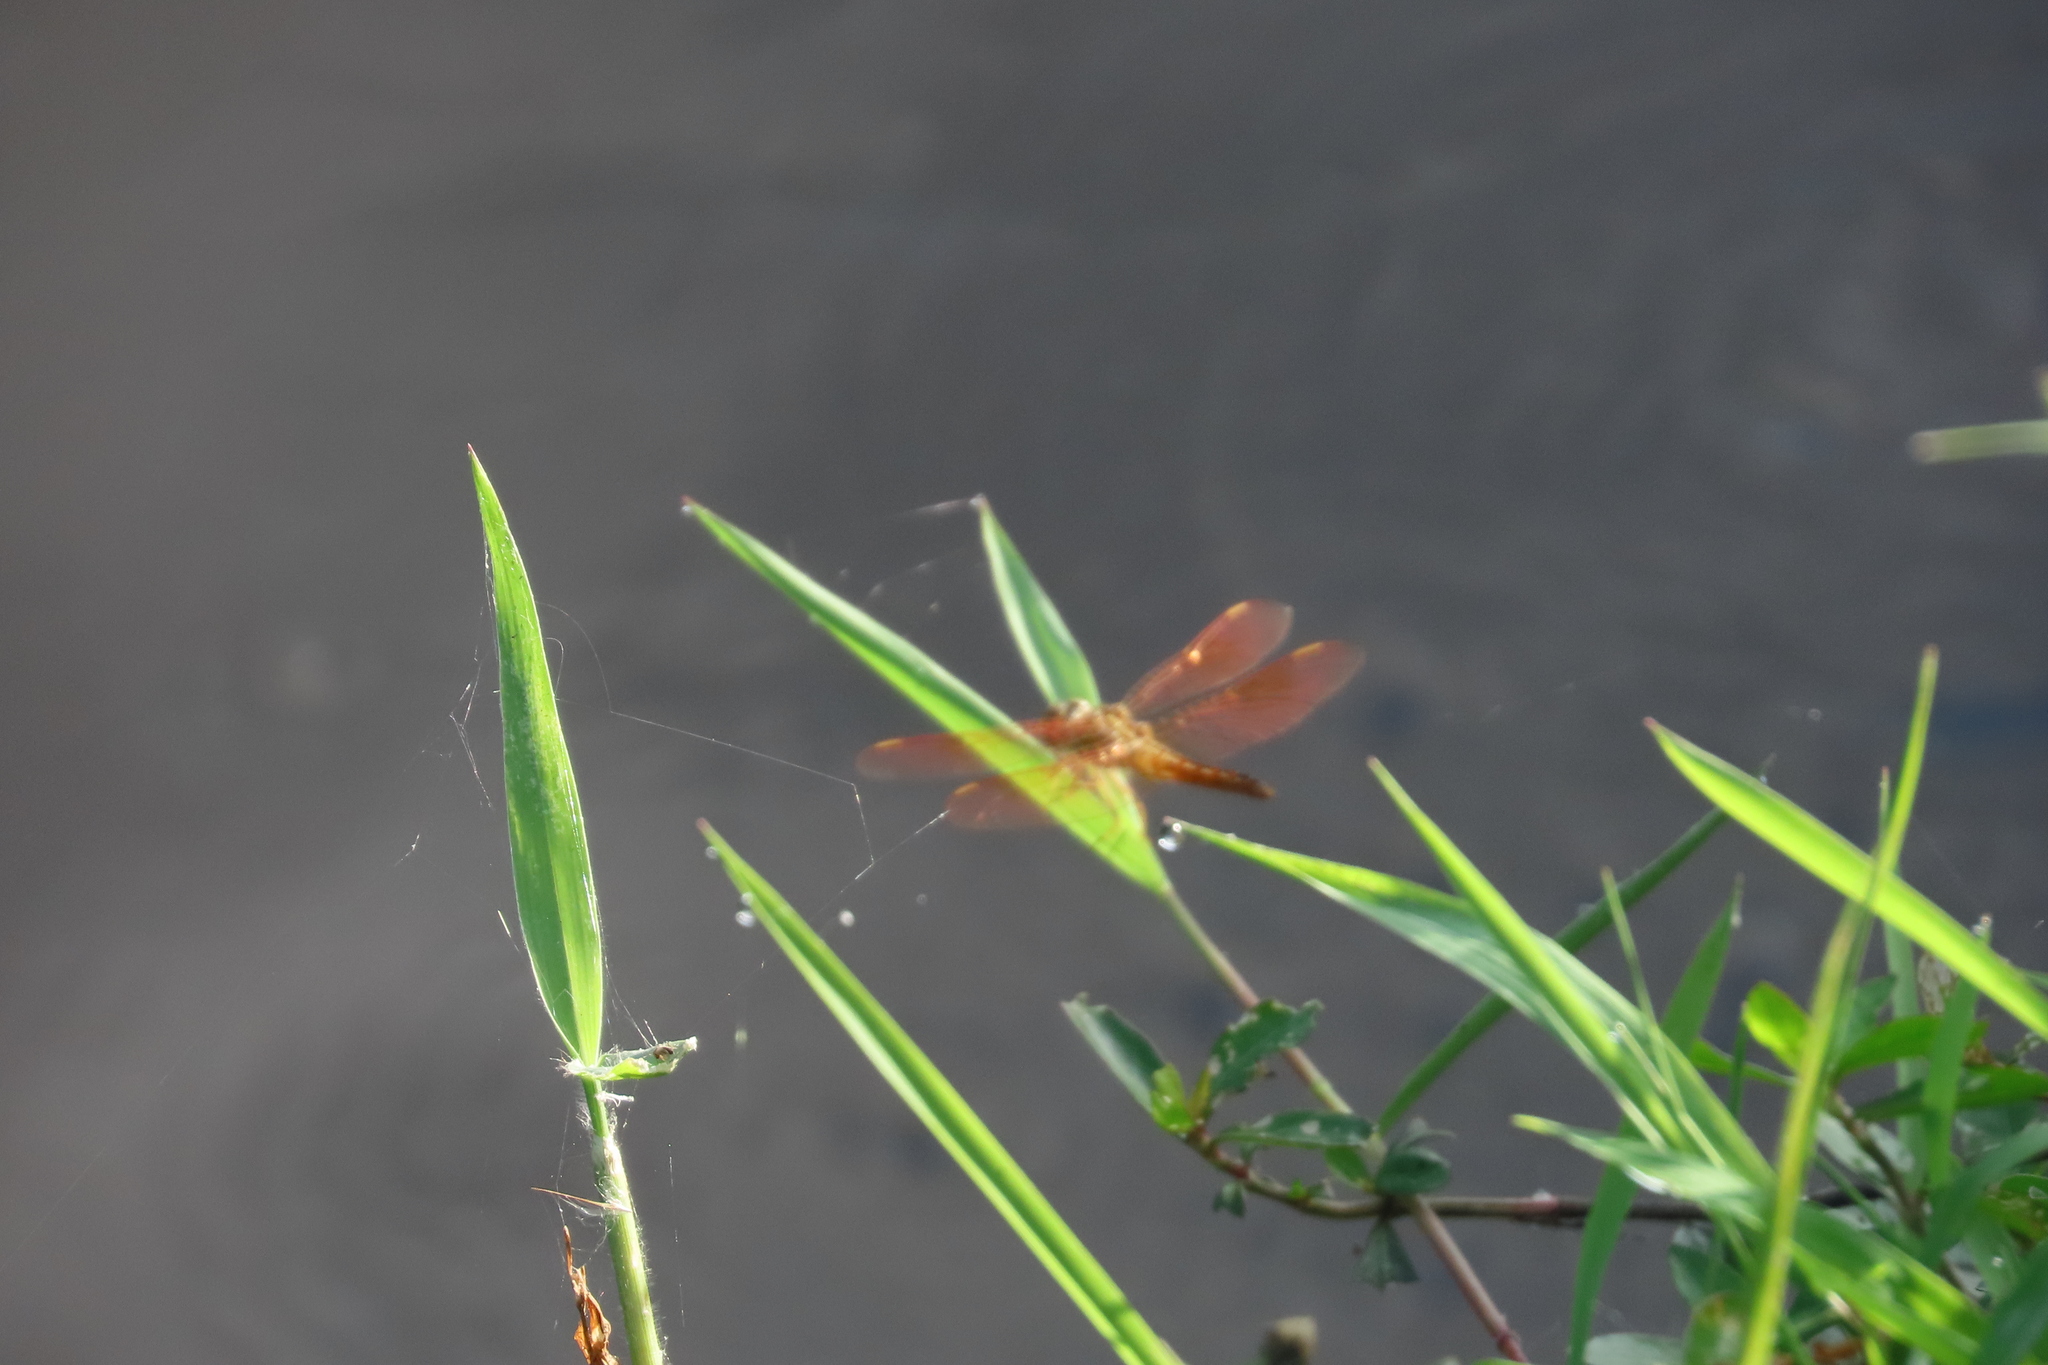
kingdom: Animalia
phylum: Arthropoda
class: Insecta
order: Odonata
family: Libellulidae
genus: Brachythemis
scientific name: Brachythemis contaminata
